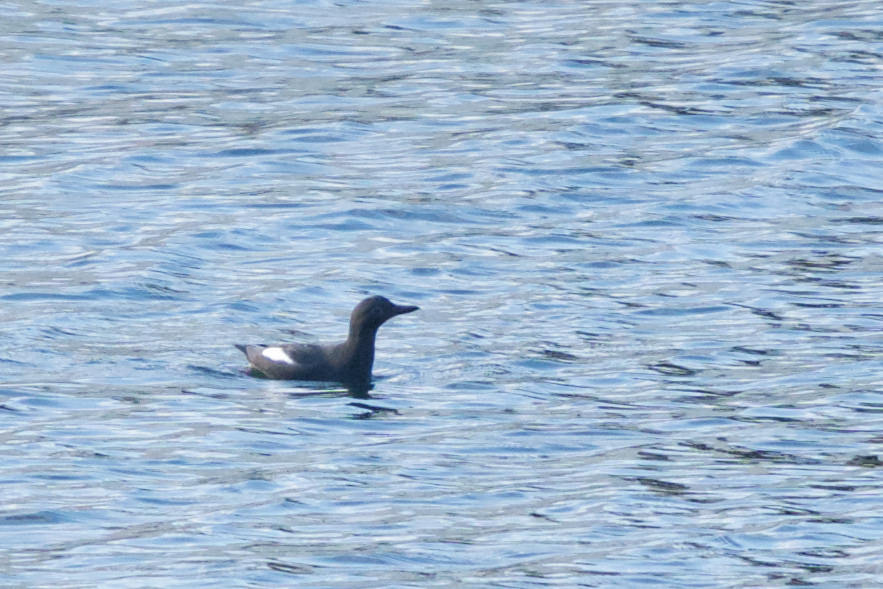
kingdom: Animalia
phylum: Chordata
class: Aves
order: Charadriiformes
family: Alcidae
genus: Cepphus
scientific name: Cepphus columba
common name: Pigeon guillemot
